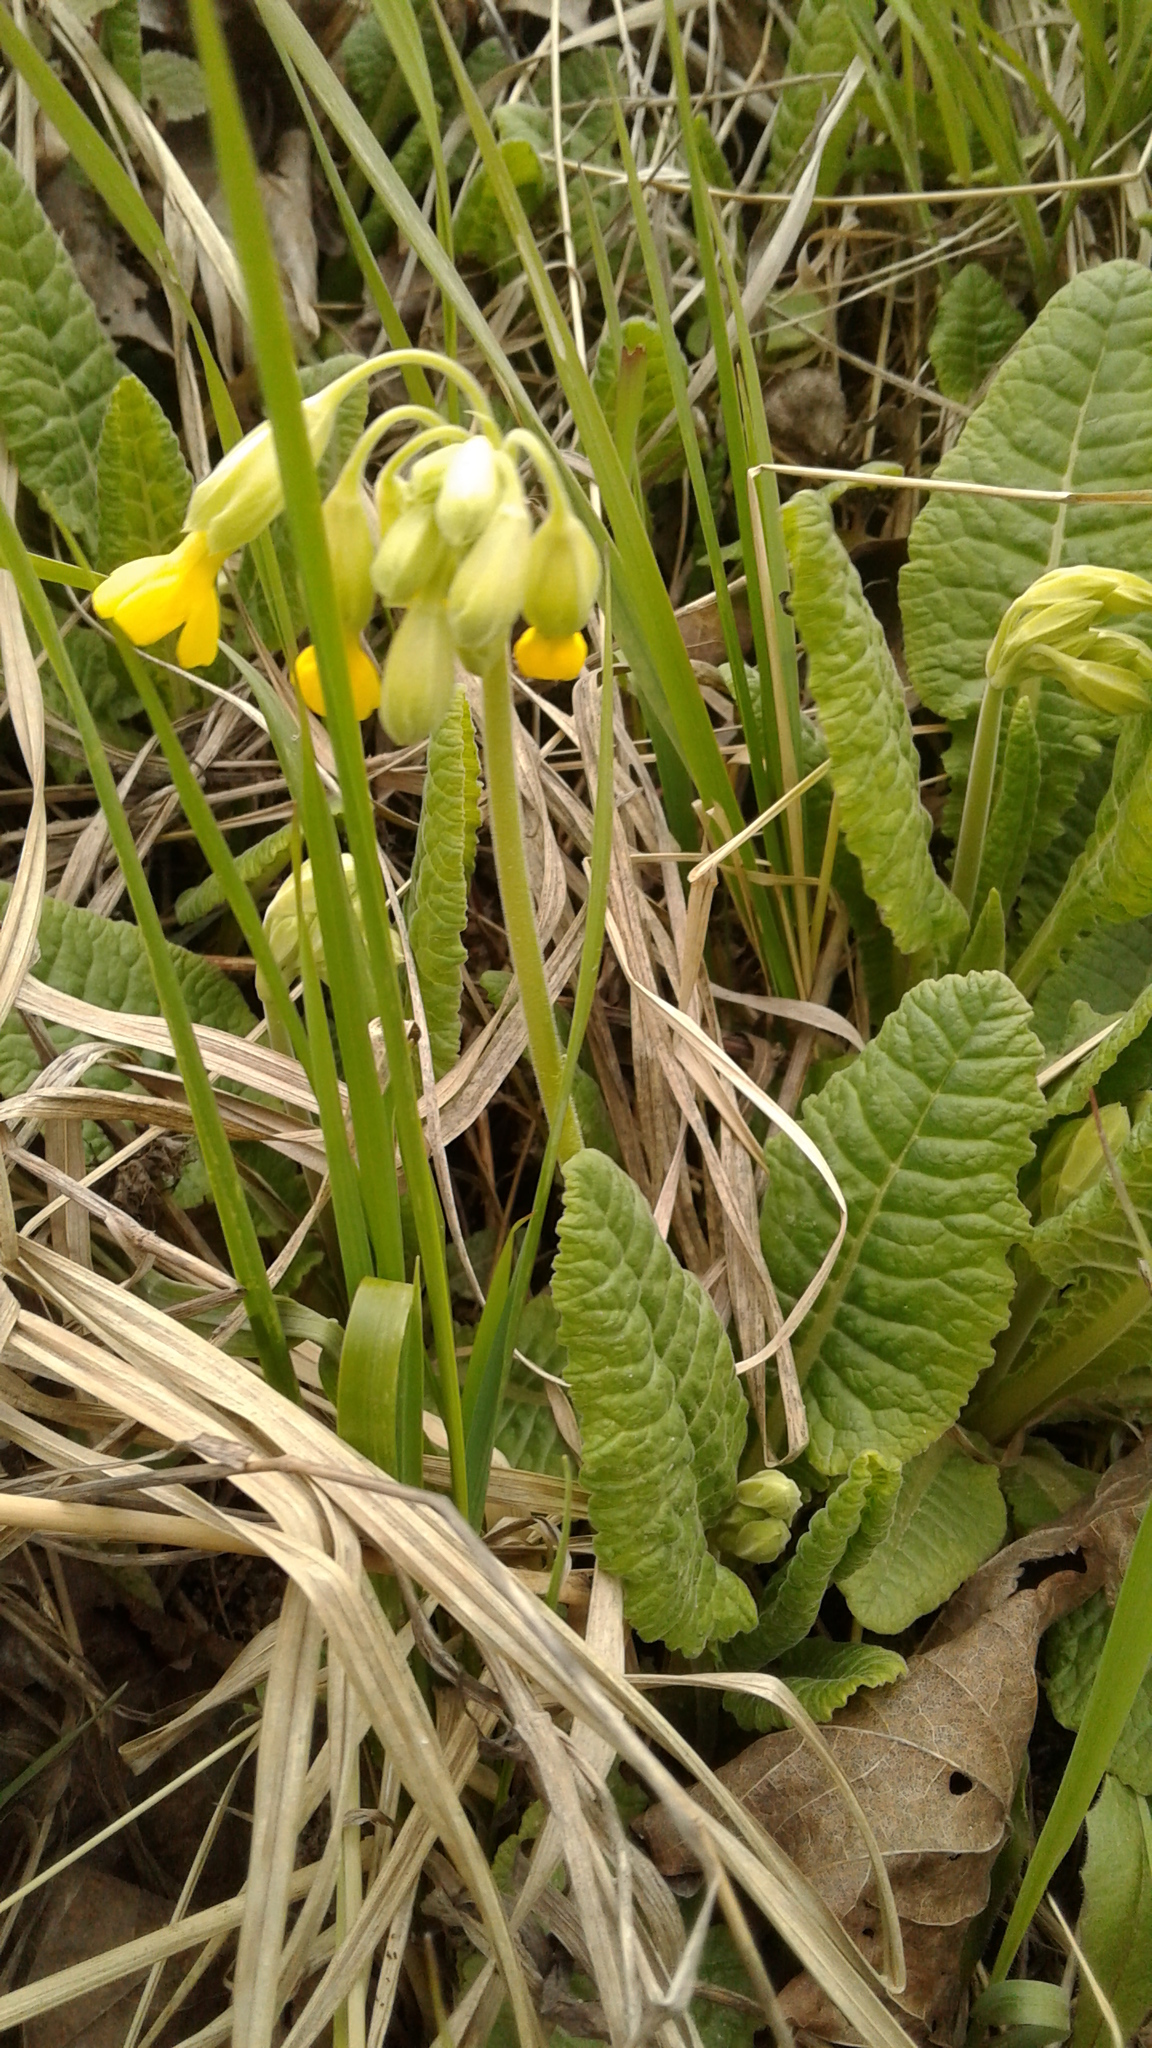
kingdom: Plantae
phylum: Tracheophyta
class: Magnoliopsida
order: Ericales
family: Primulaceae
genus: Primula
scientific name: Primula veris
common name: Cowslip
